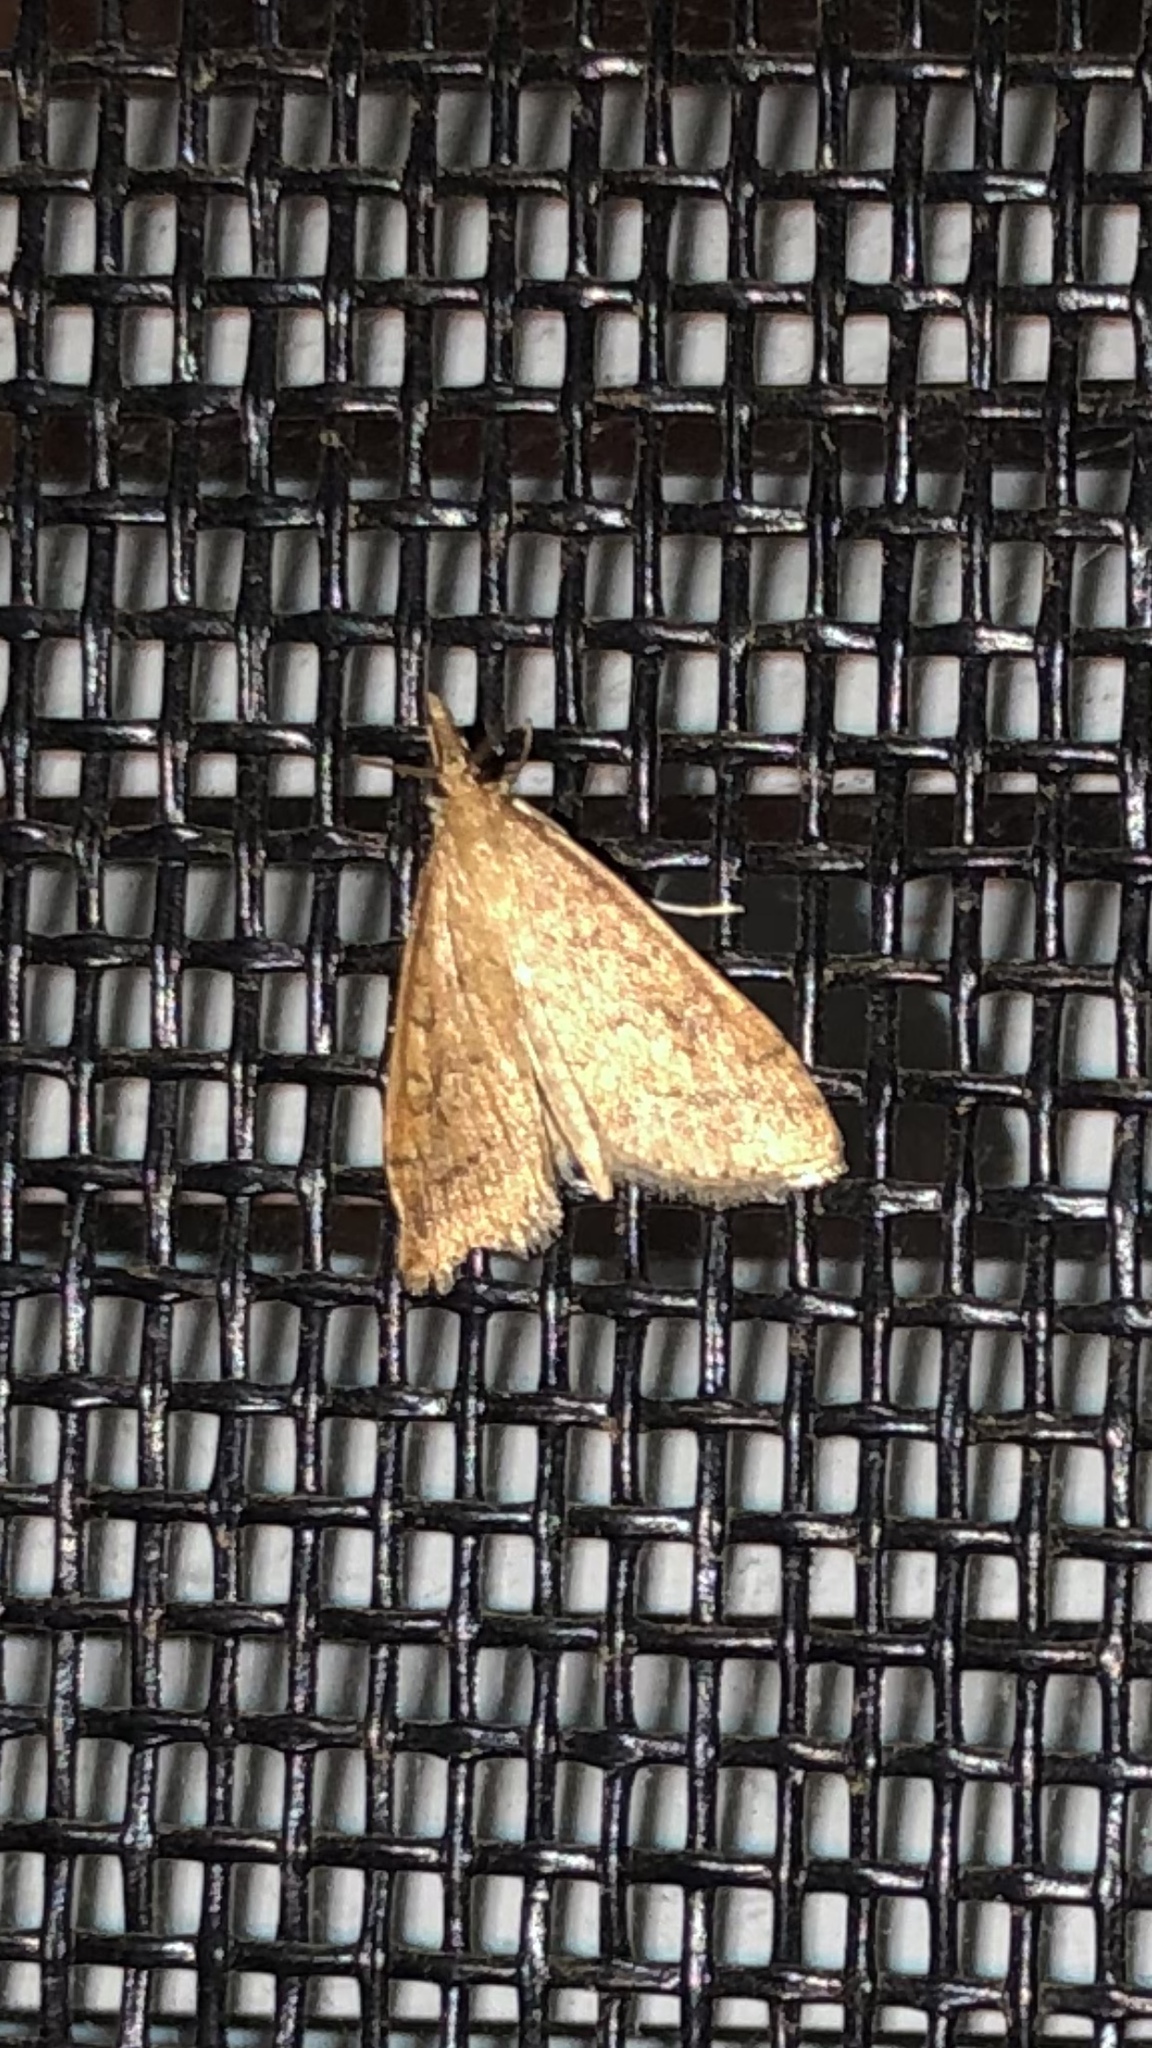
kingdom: Animalia
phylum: Arthropoda
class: Insecta
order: Lepidoptera
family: Crambidae
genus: Udea
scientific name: Udea rubigalis
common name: Celery leaftier moth
